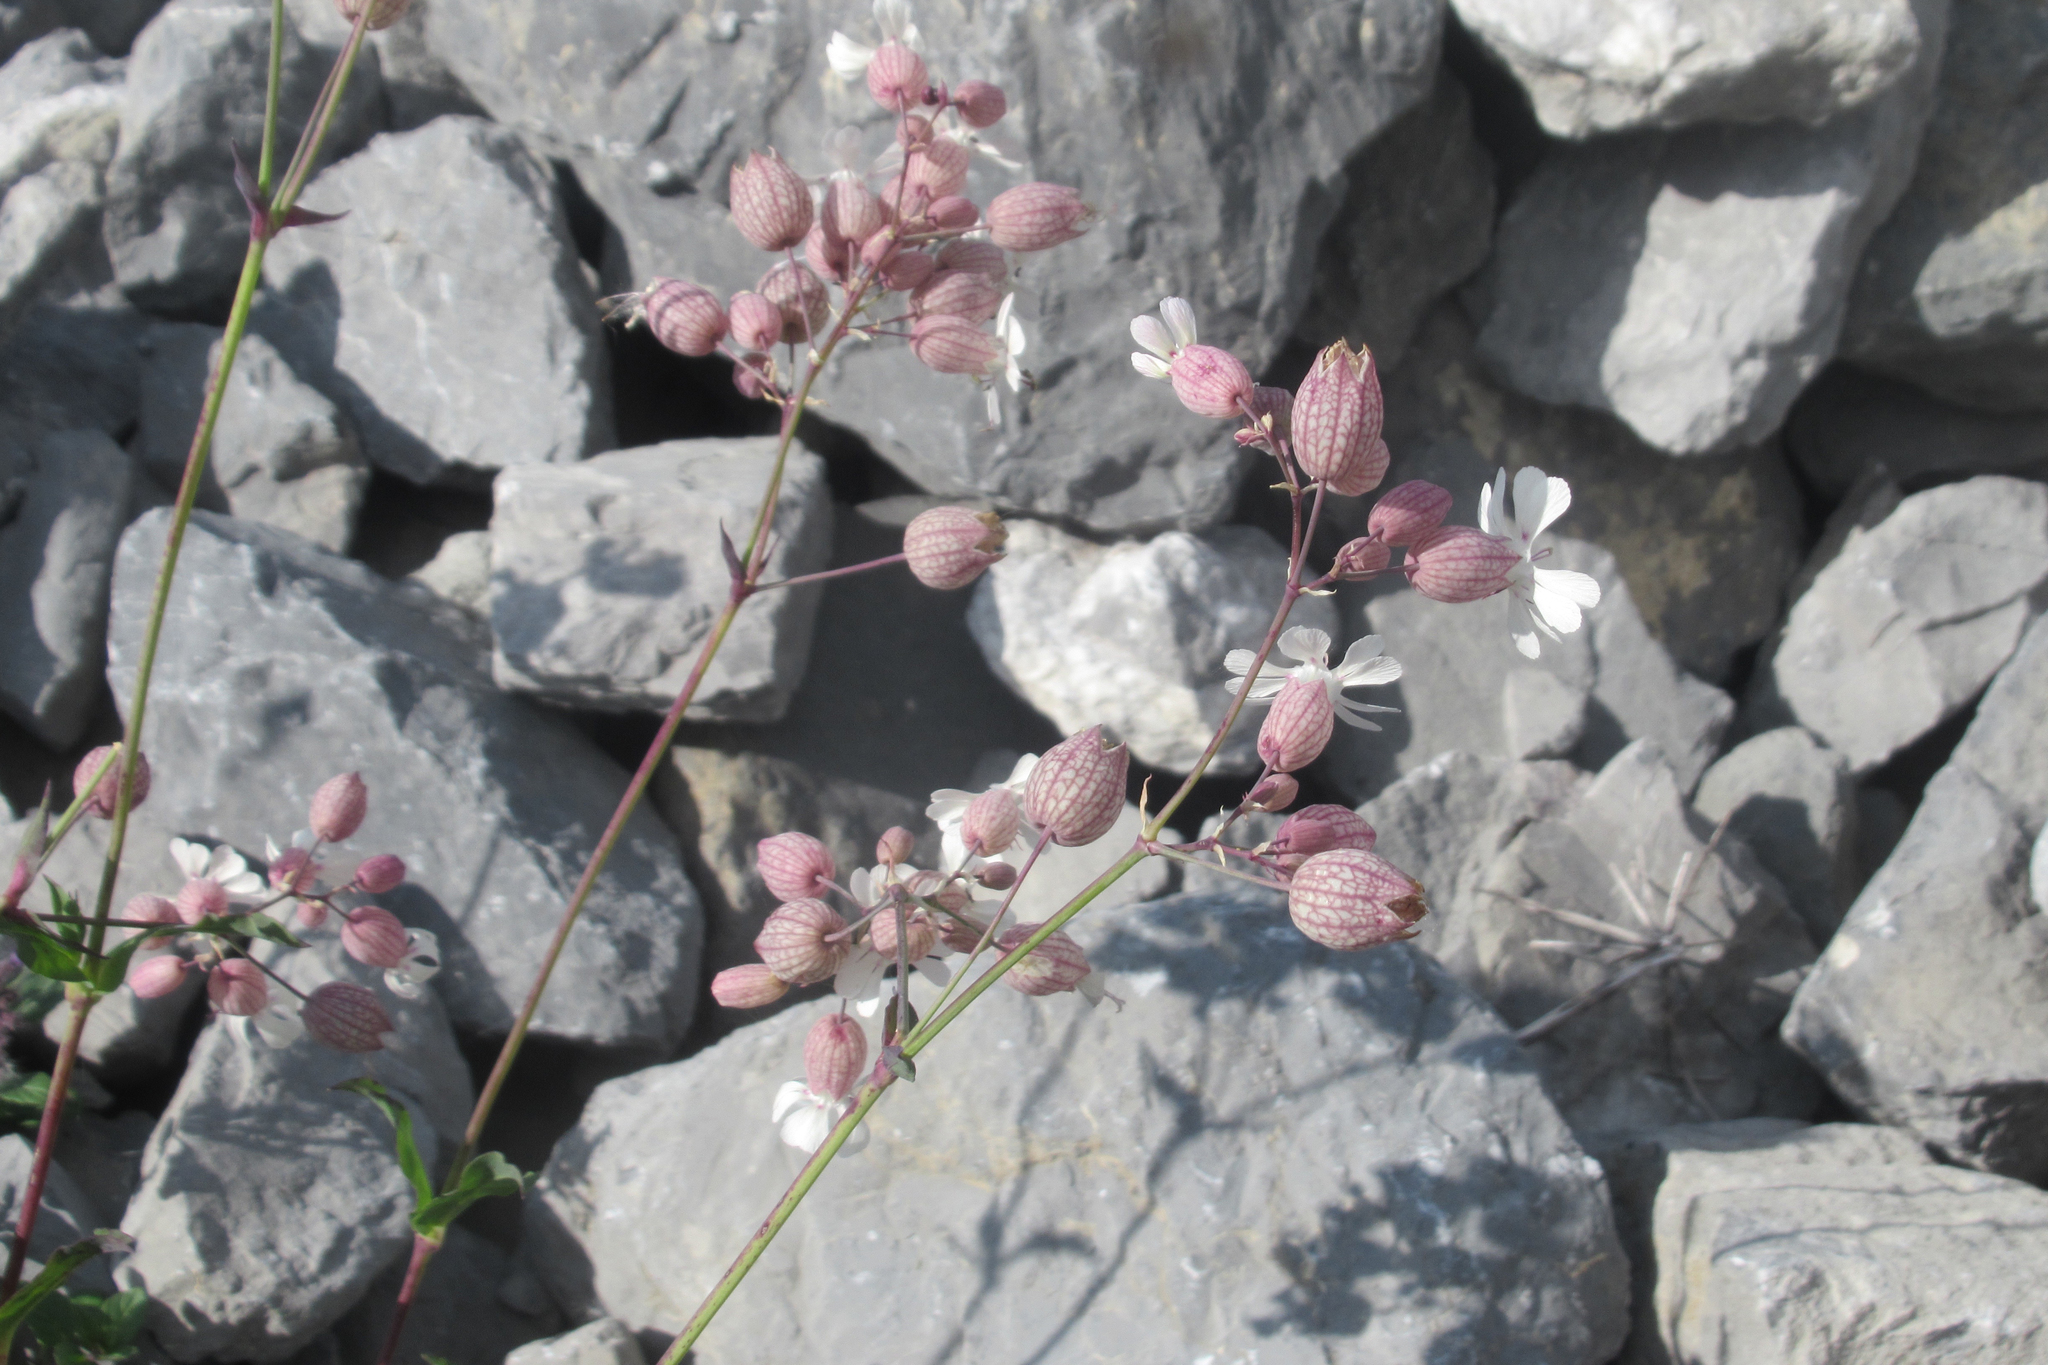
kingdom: Plantae
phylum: Tracheophyta
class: Magnoliopsida
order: Caryophyllales
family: Caryophyllaceae
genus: Silene
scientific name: Silene vulgaris
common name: Bladder campion
